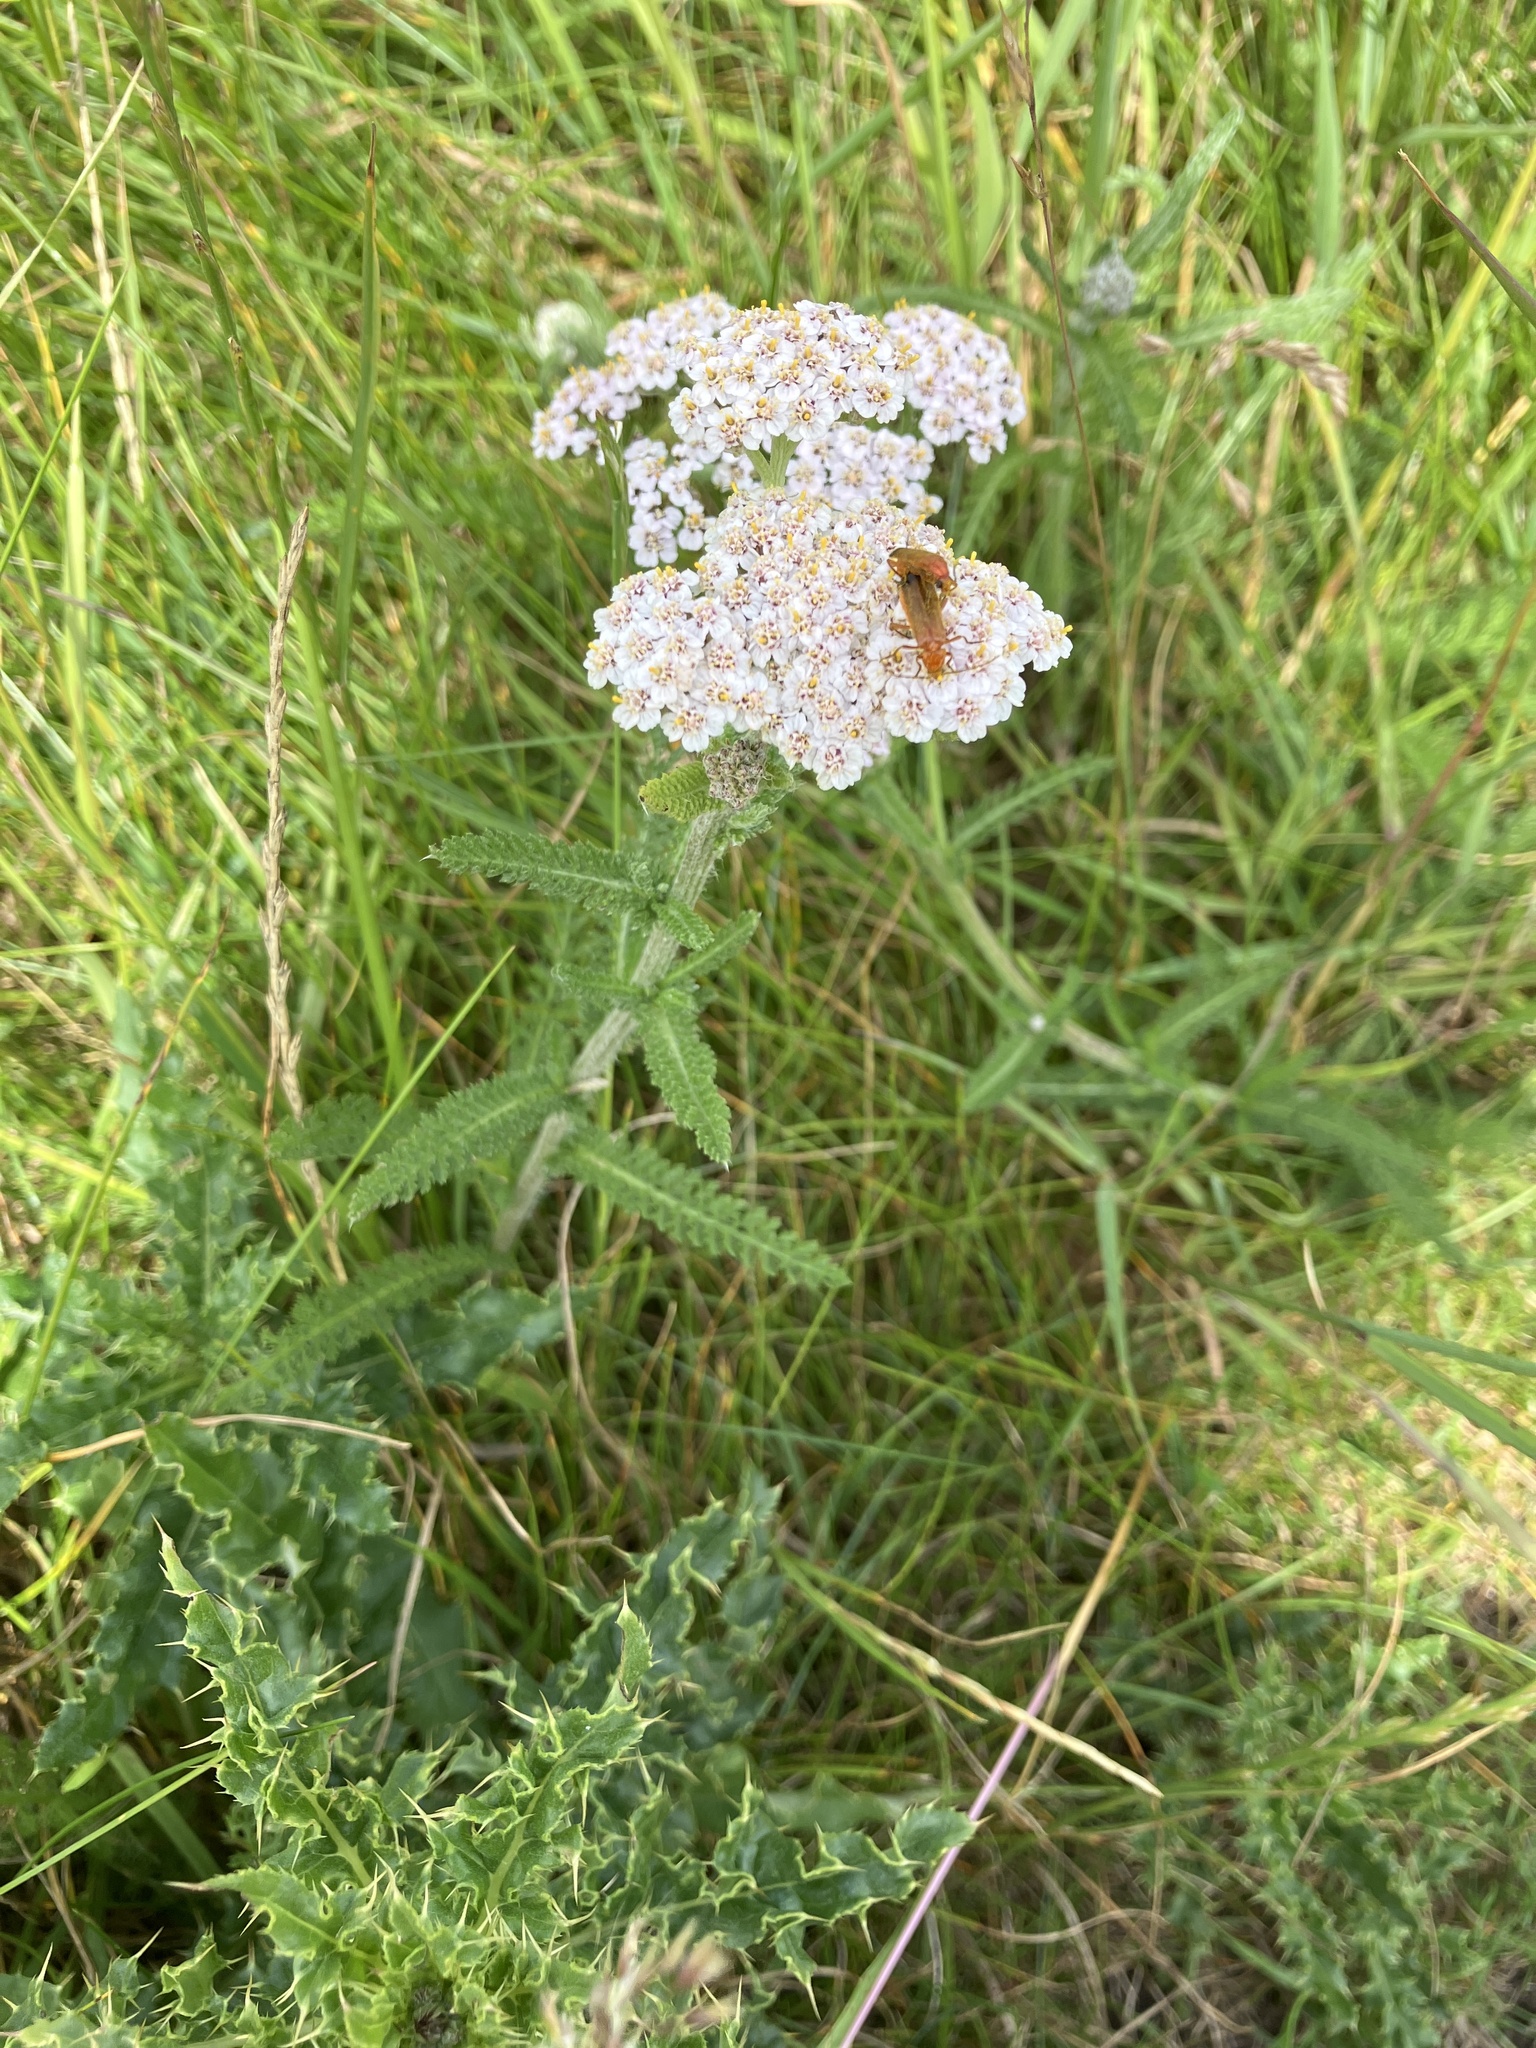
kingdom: Plantae
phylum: Tracheophyta
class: Magnoliopsida
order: Asterales
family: Asteraceae
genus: Achillea
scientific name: Achillea millefolium
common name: Yarrow
